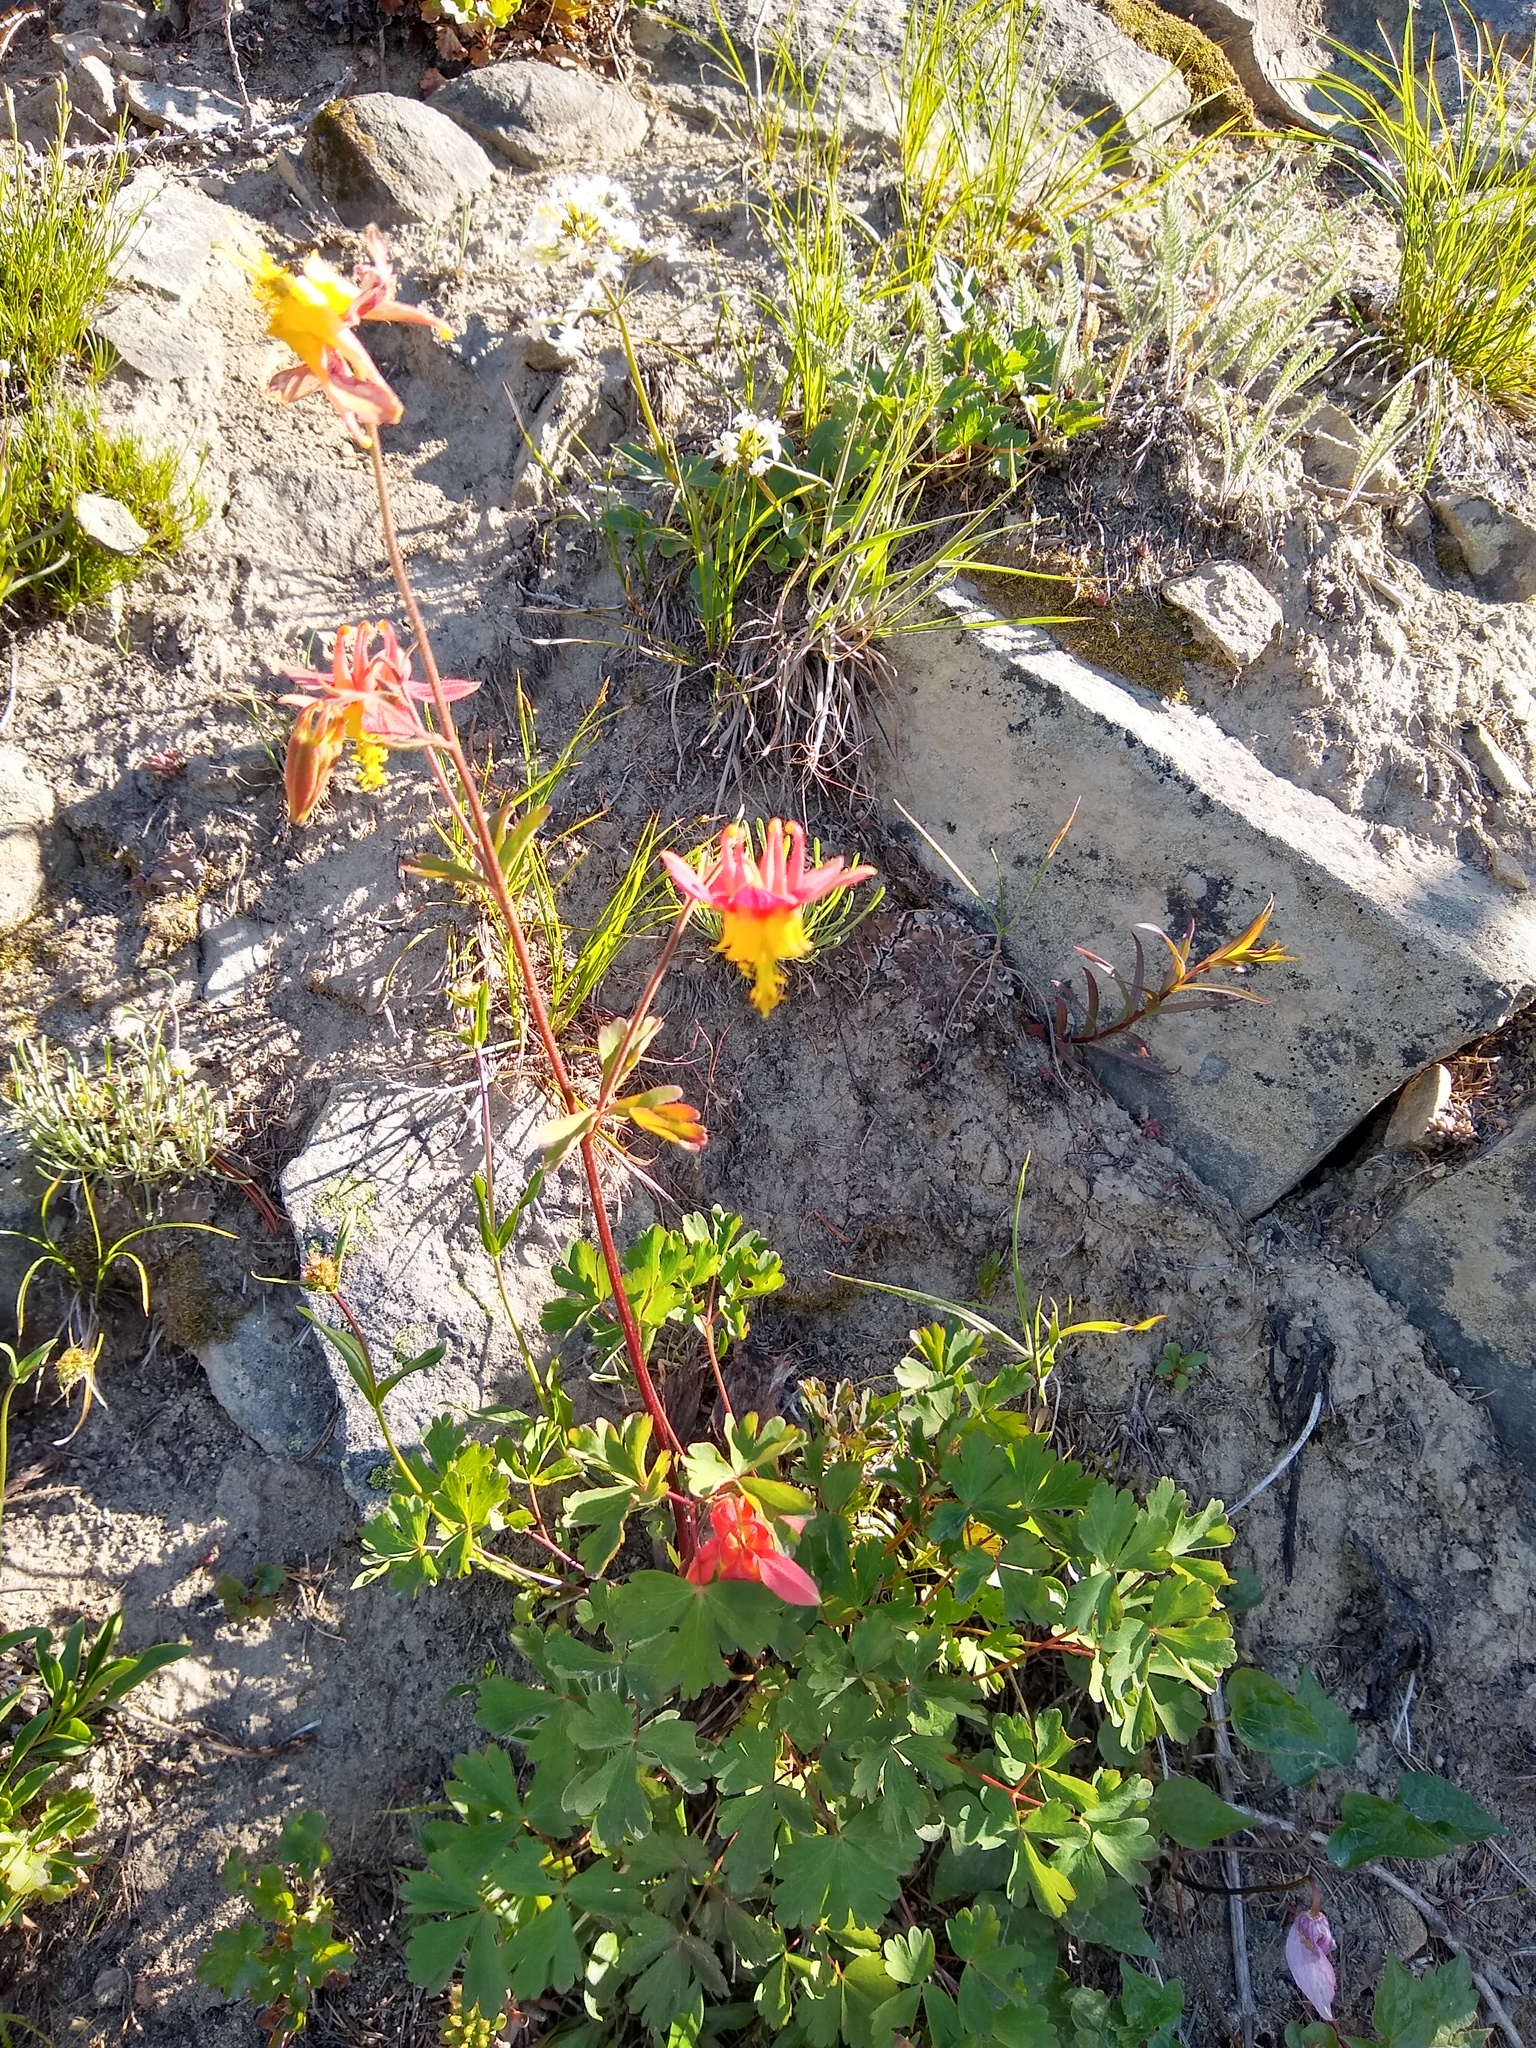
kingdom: Plantae
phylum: Tracheophyta
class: Magnoliopsida
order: Ranunculales
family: Ranunculaceae
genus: Aquilegia
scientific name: Aquilegia formosa
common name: Sitka columbine
